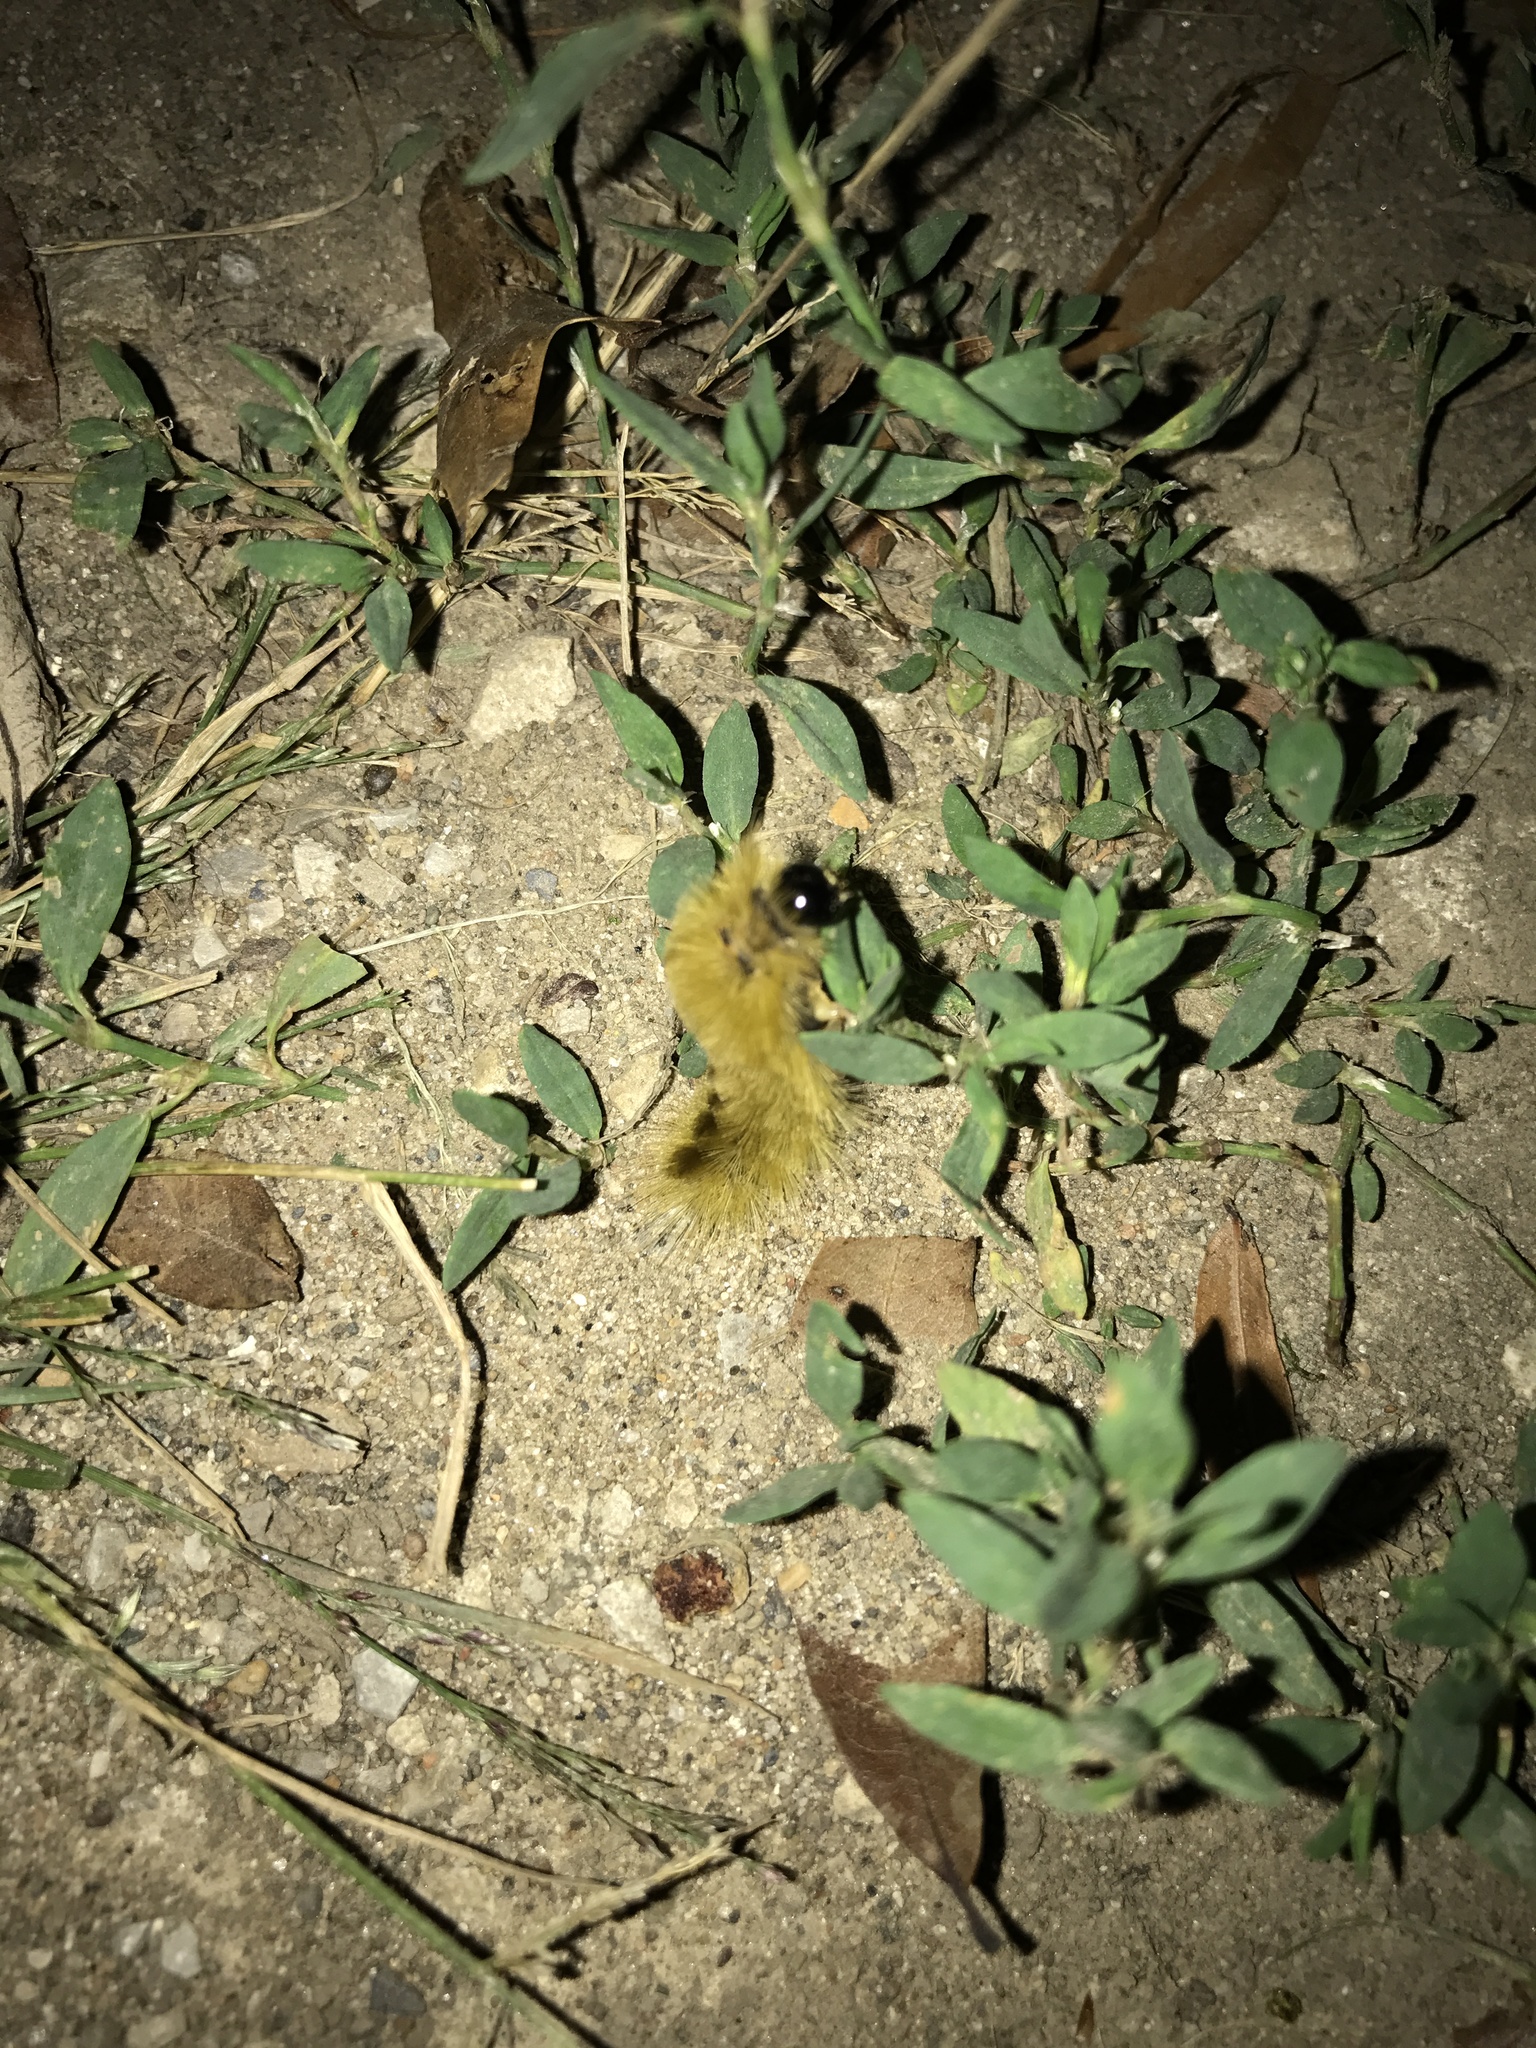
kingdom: Animalia
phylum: Arthropoda
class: Insecta
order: Lepidoptera
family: Erebidae
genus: Halysidota
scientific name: Halysidota tessellaris
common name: Banded tussock moth
